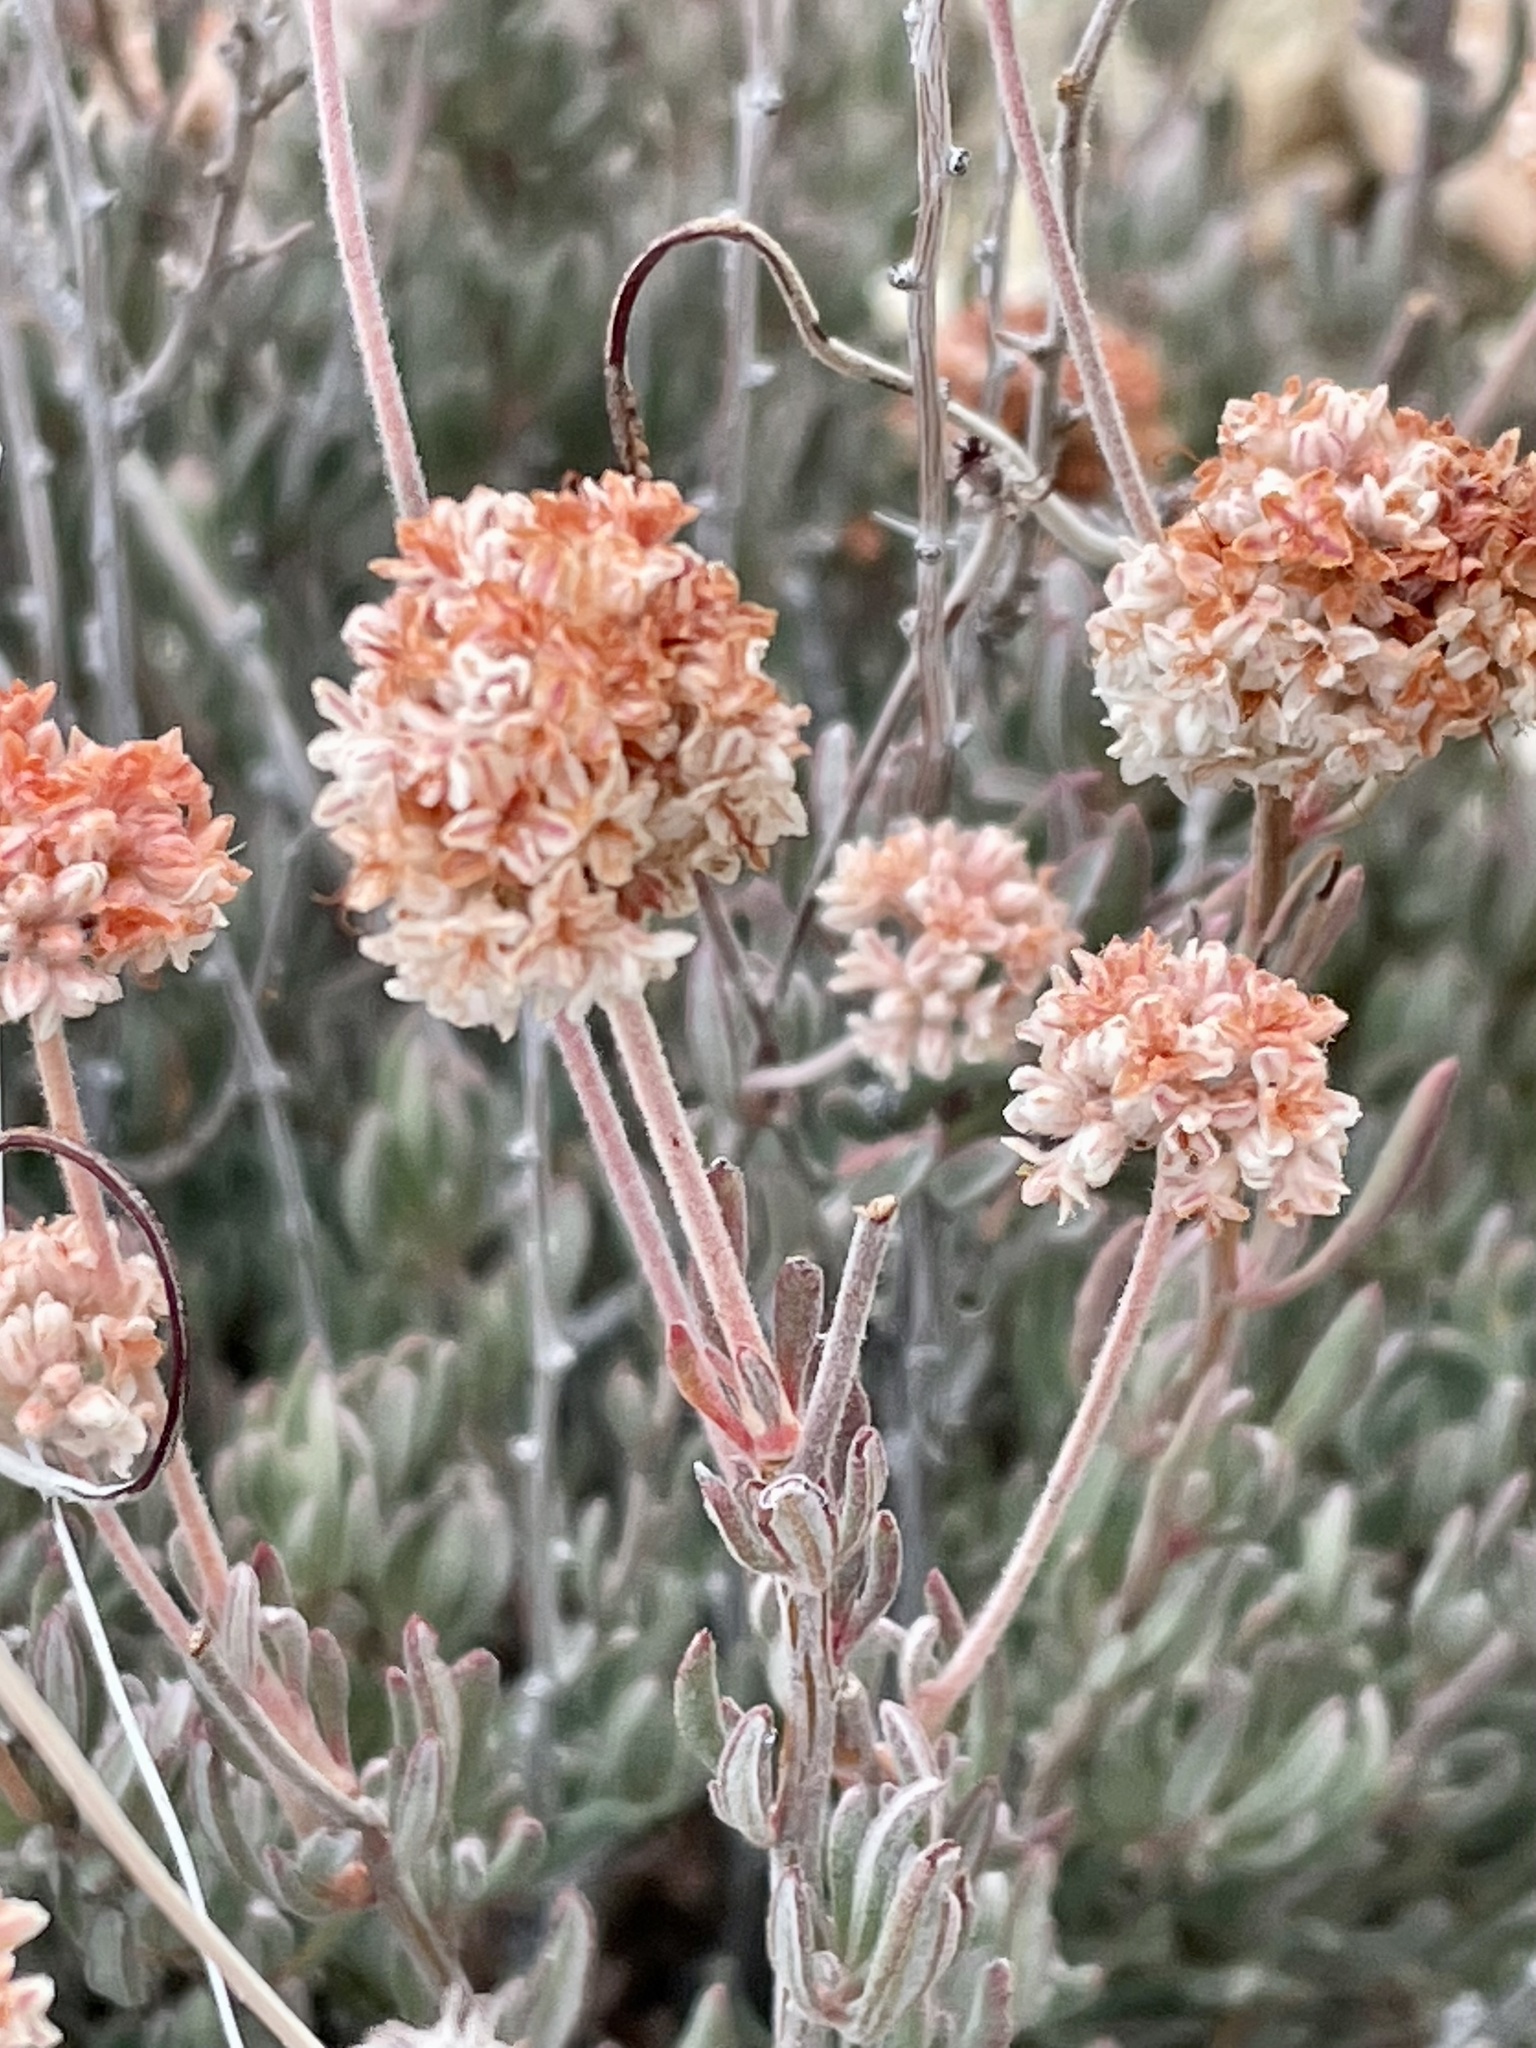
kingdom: Plantae
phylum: Tracheophyta
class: Magnoliopsida
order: Caryophyllales
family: Polygonaceae
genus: Eriogonum
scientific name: Eriogonum fasciculatum
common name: California wild buckwheat
